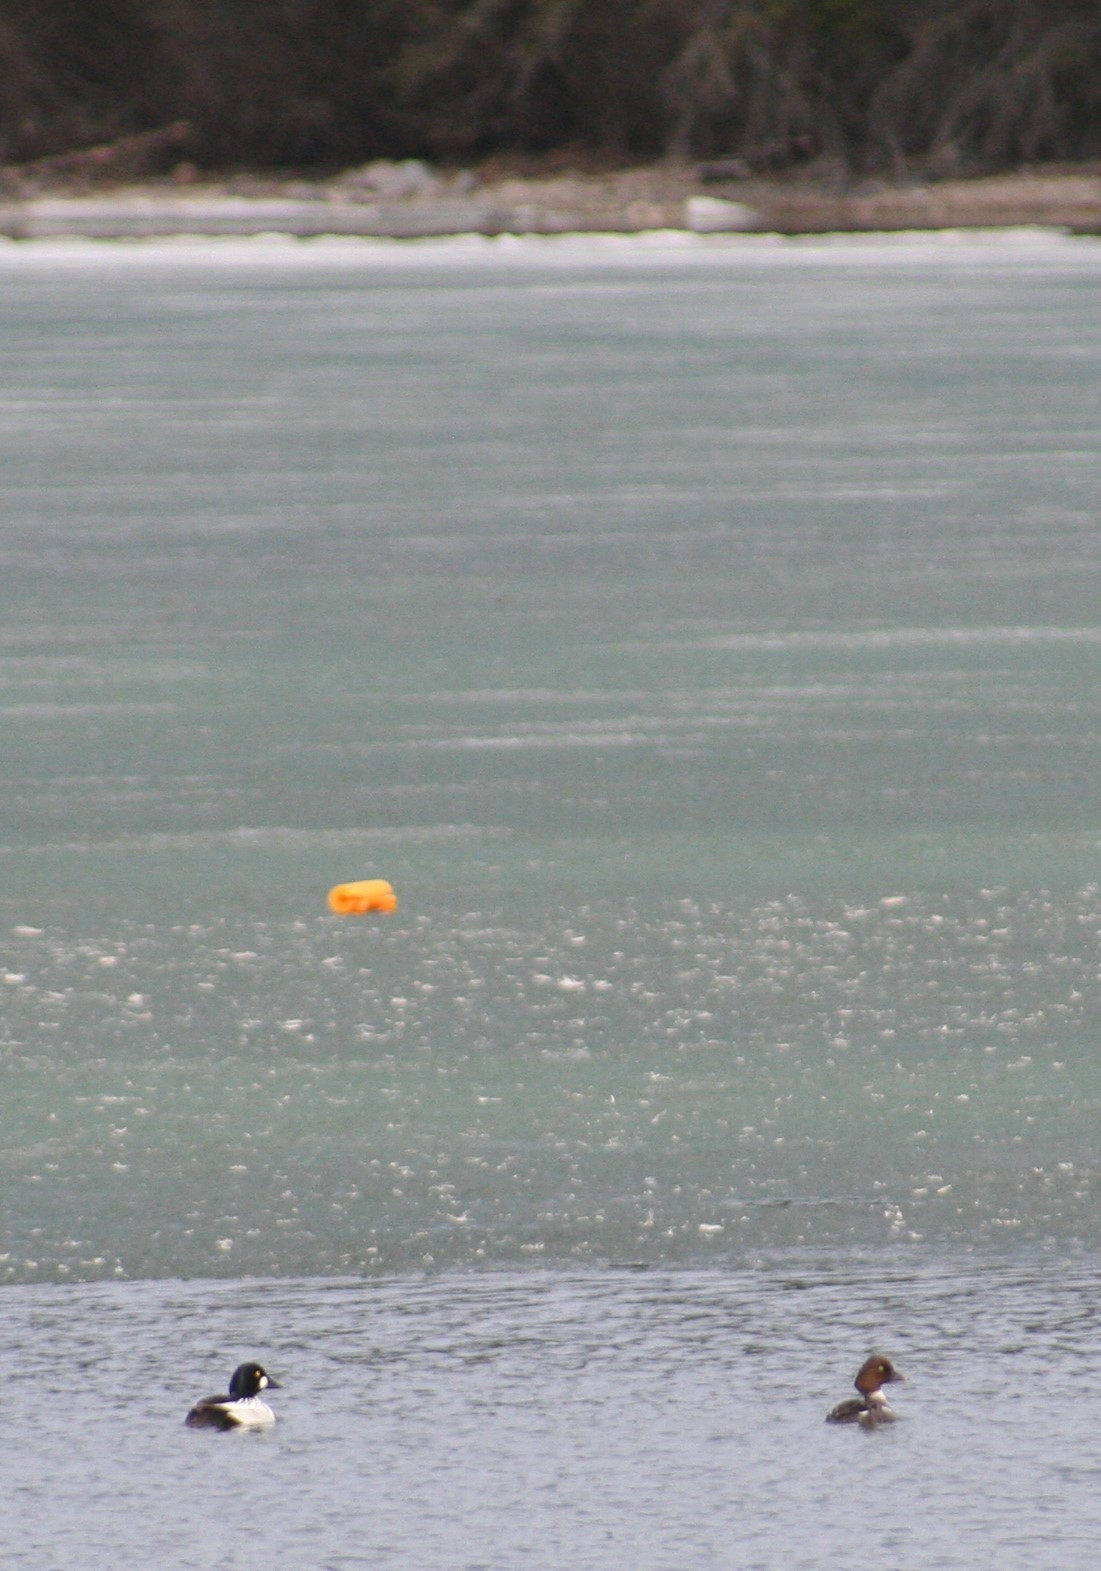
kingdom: Animalia
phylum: Chordata
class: Aves
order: Anseriformes
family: Anatidae
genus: Bucephala
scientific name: Bucephala clangula
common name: Common goldeneye
